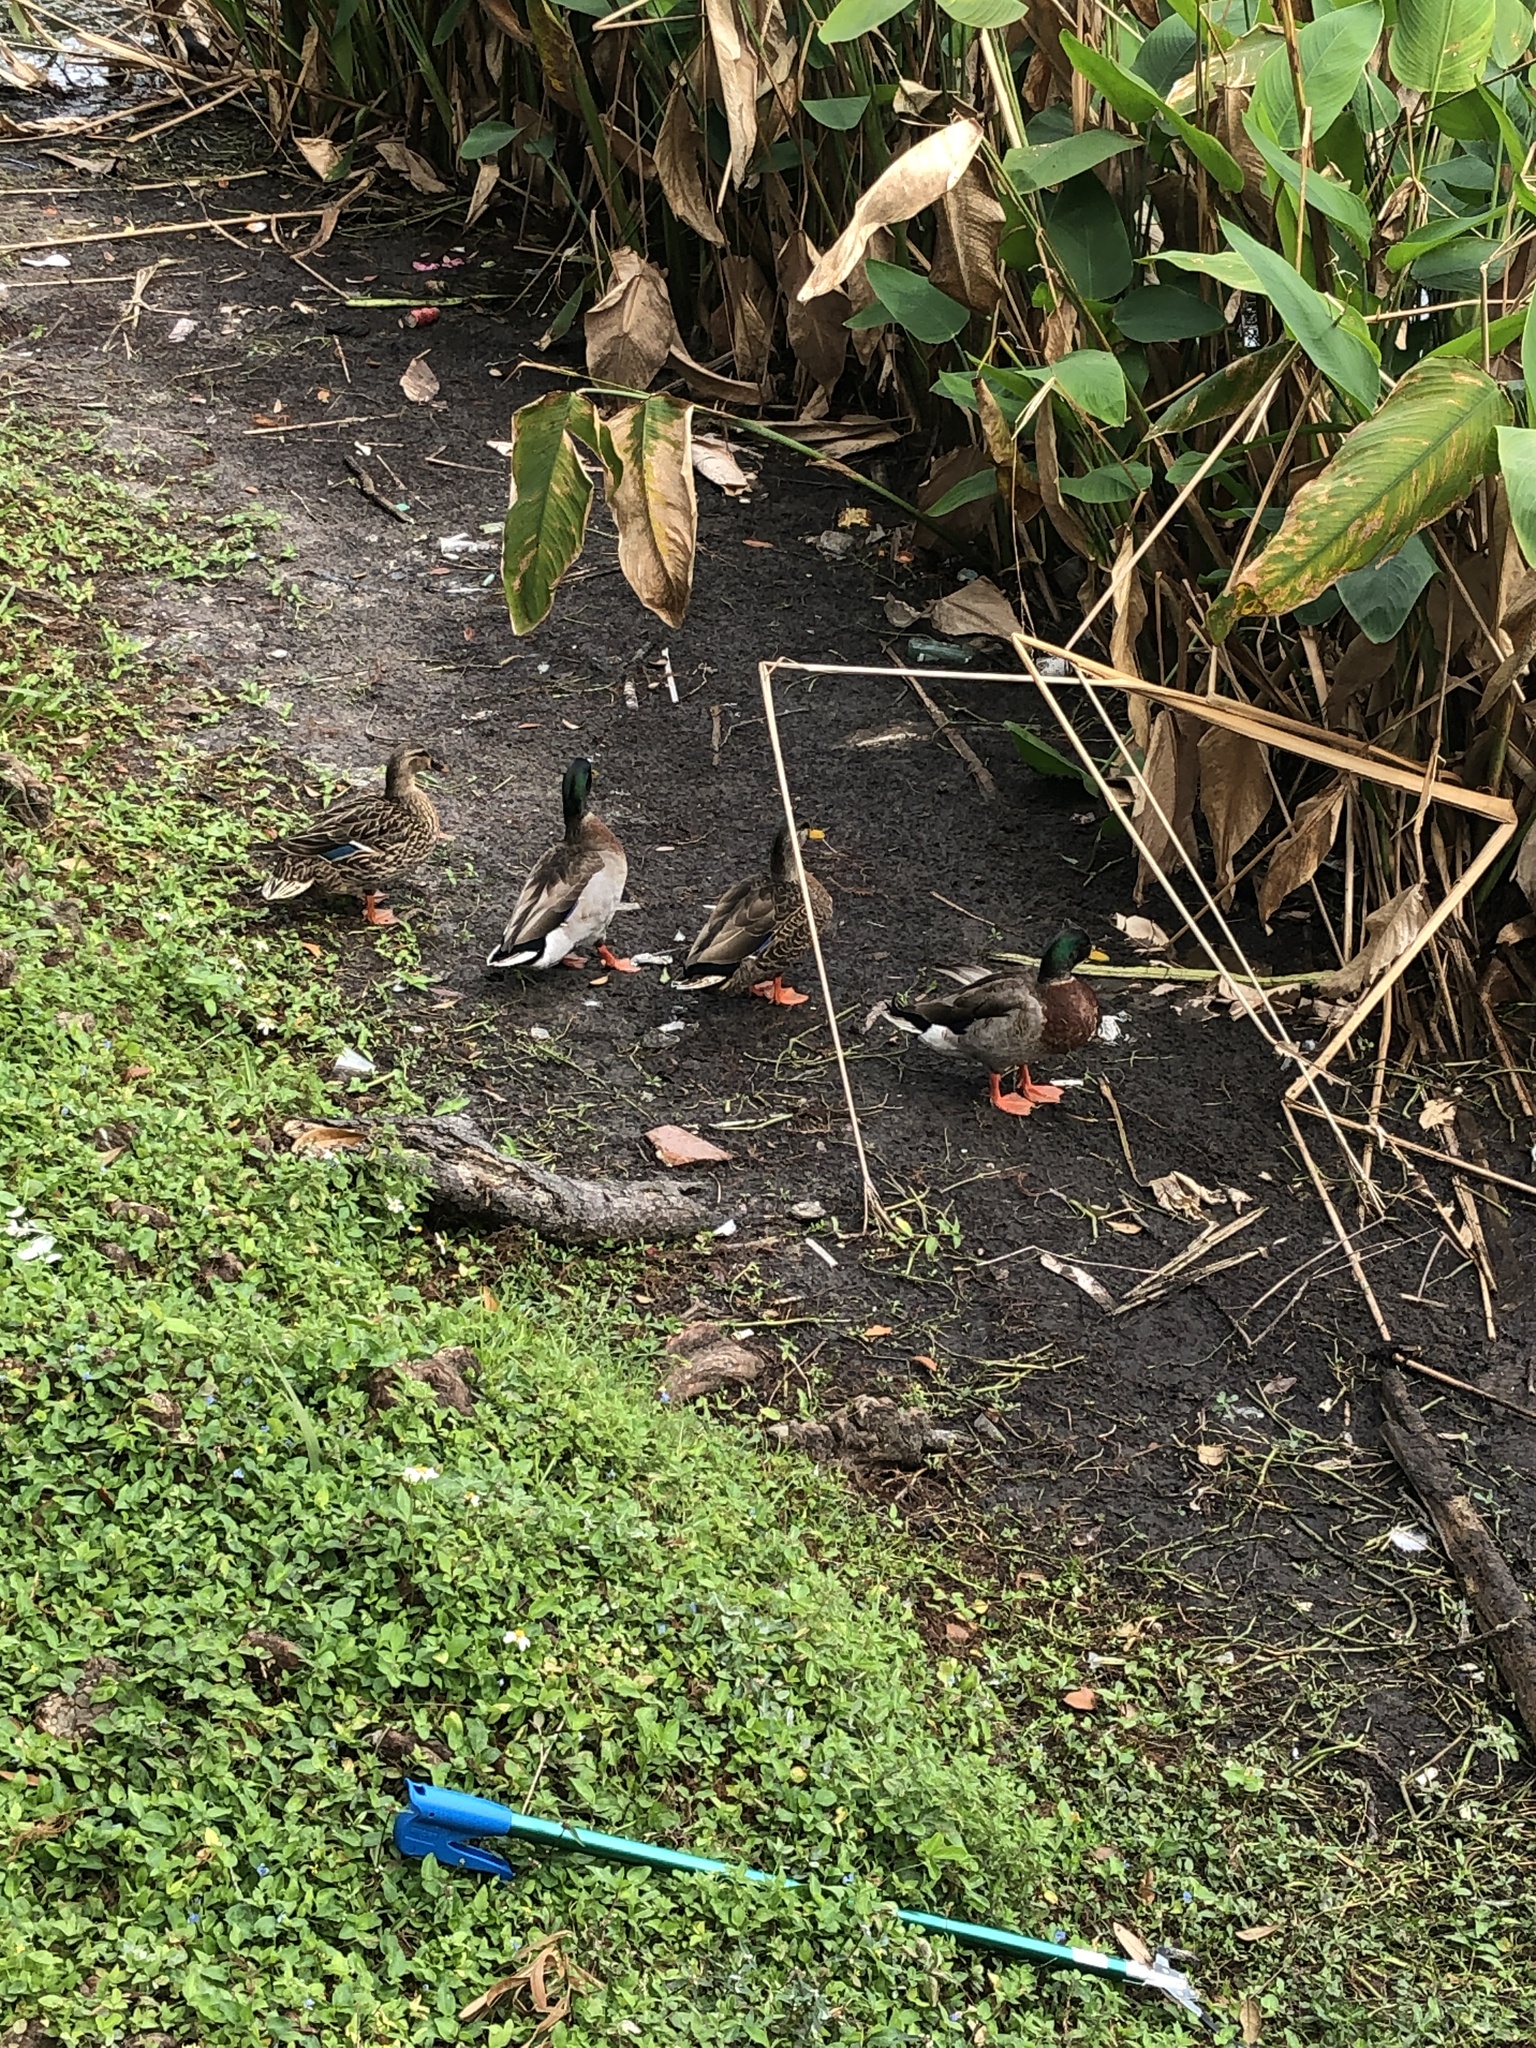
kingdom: Animalia
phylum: Chordata
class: Aves
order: Anseriformes
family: Anatidae
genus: Anas
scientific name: Anas platyrhynchos
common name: Mallard
